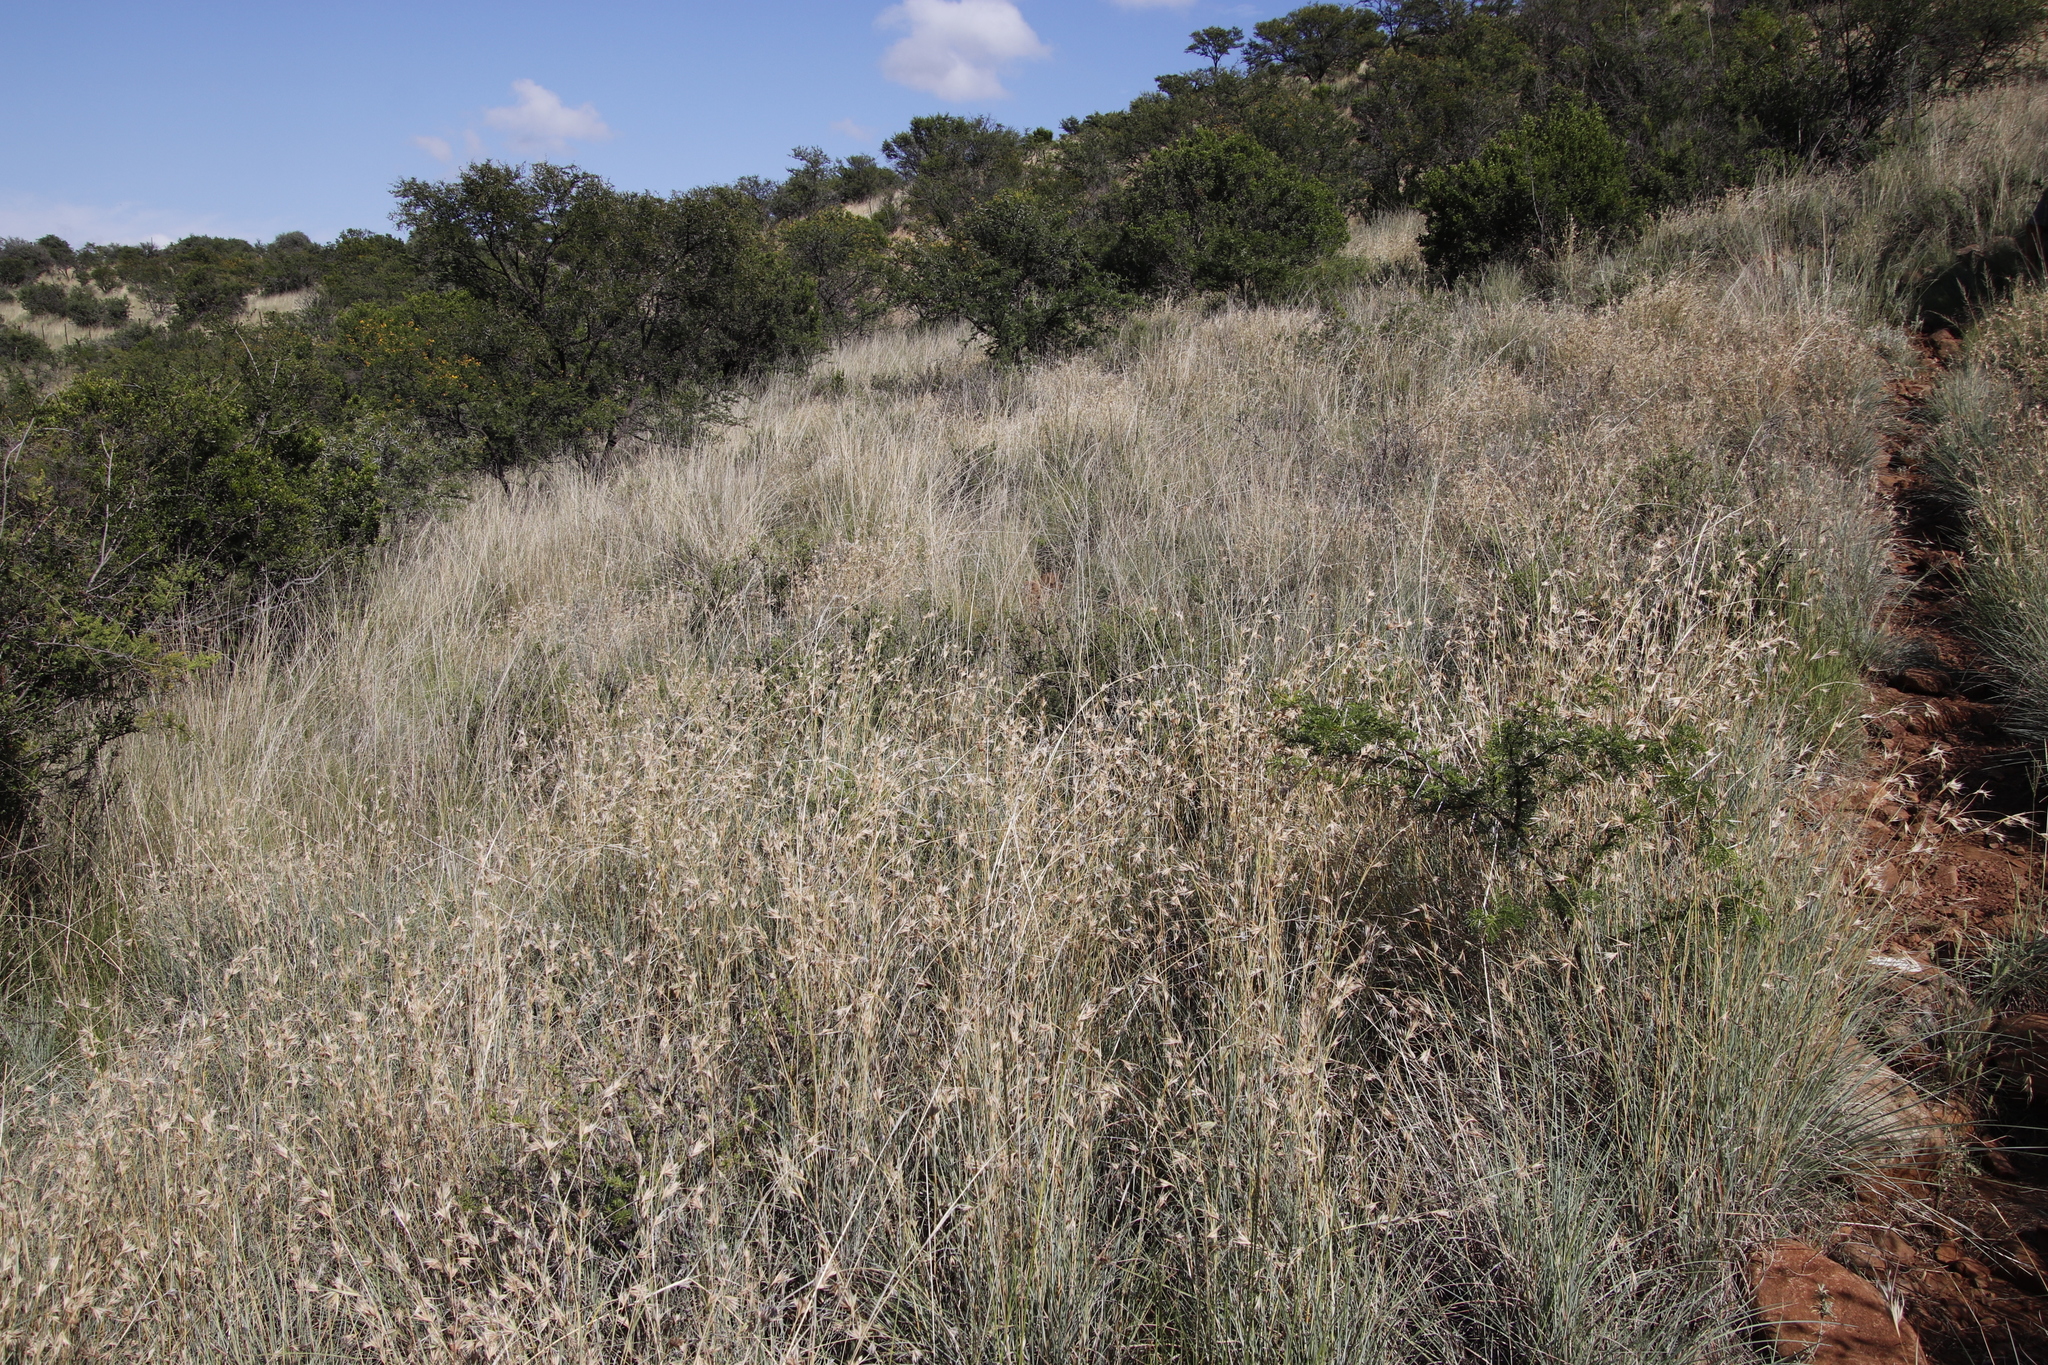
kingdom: Plantae
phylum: Tracheophyta
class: Liliopsida
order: Poales
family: Poaceae
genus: Themeda
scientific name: Themeda triandra
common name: Kangaroo grass
